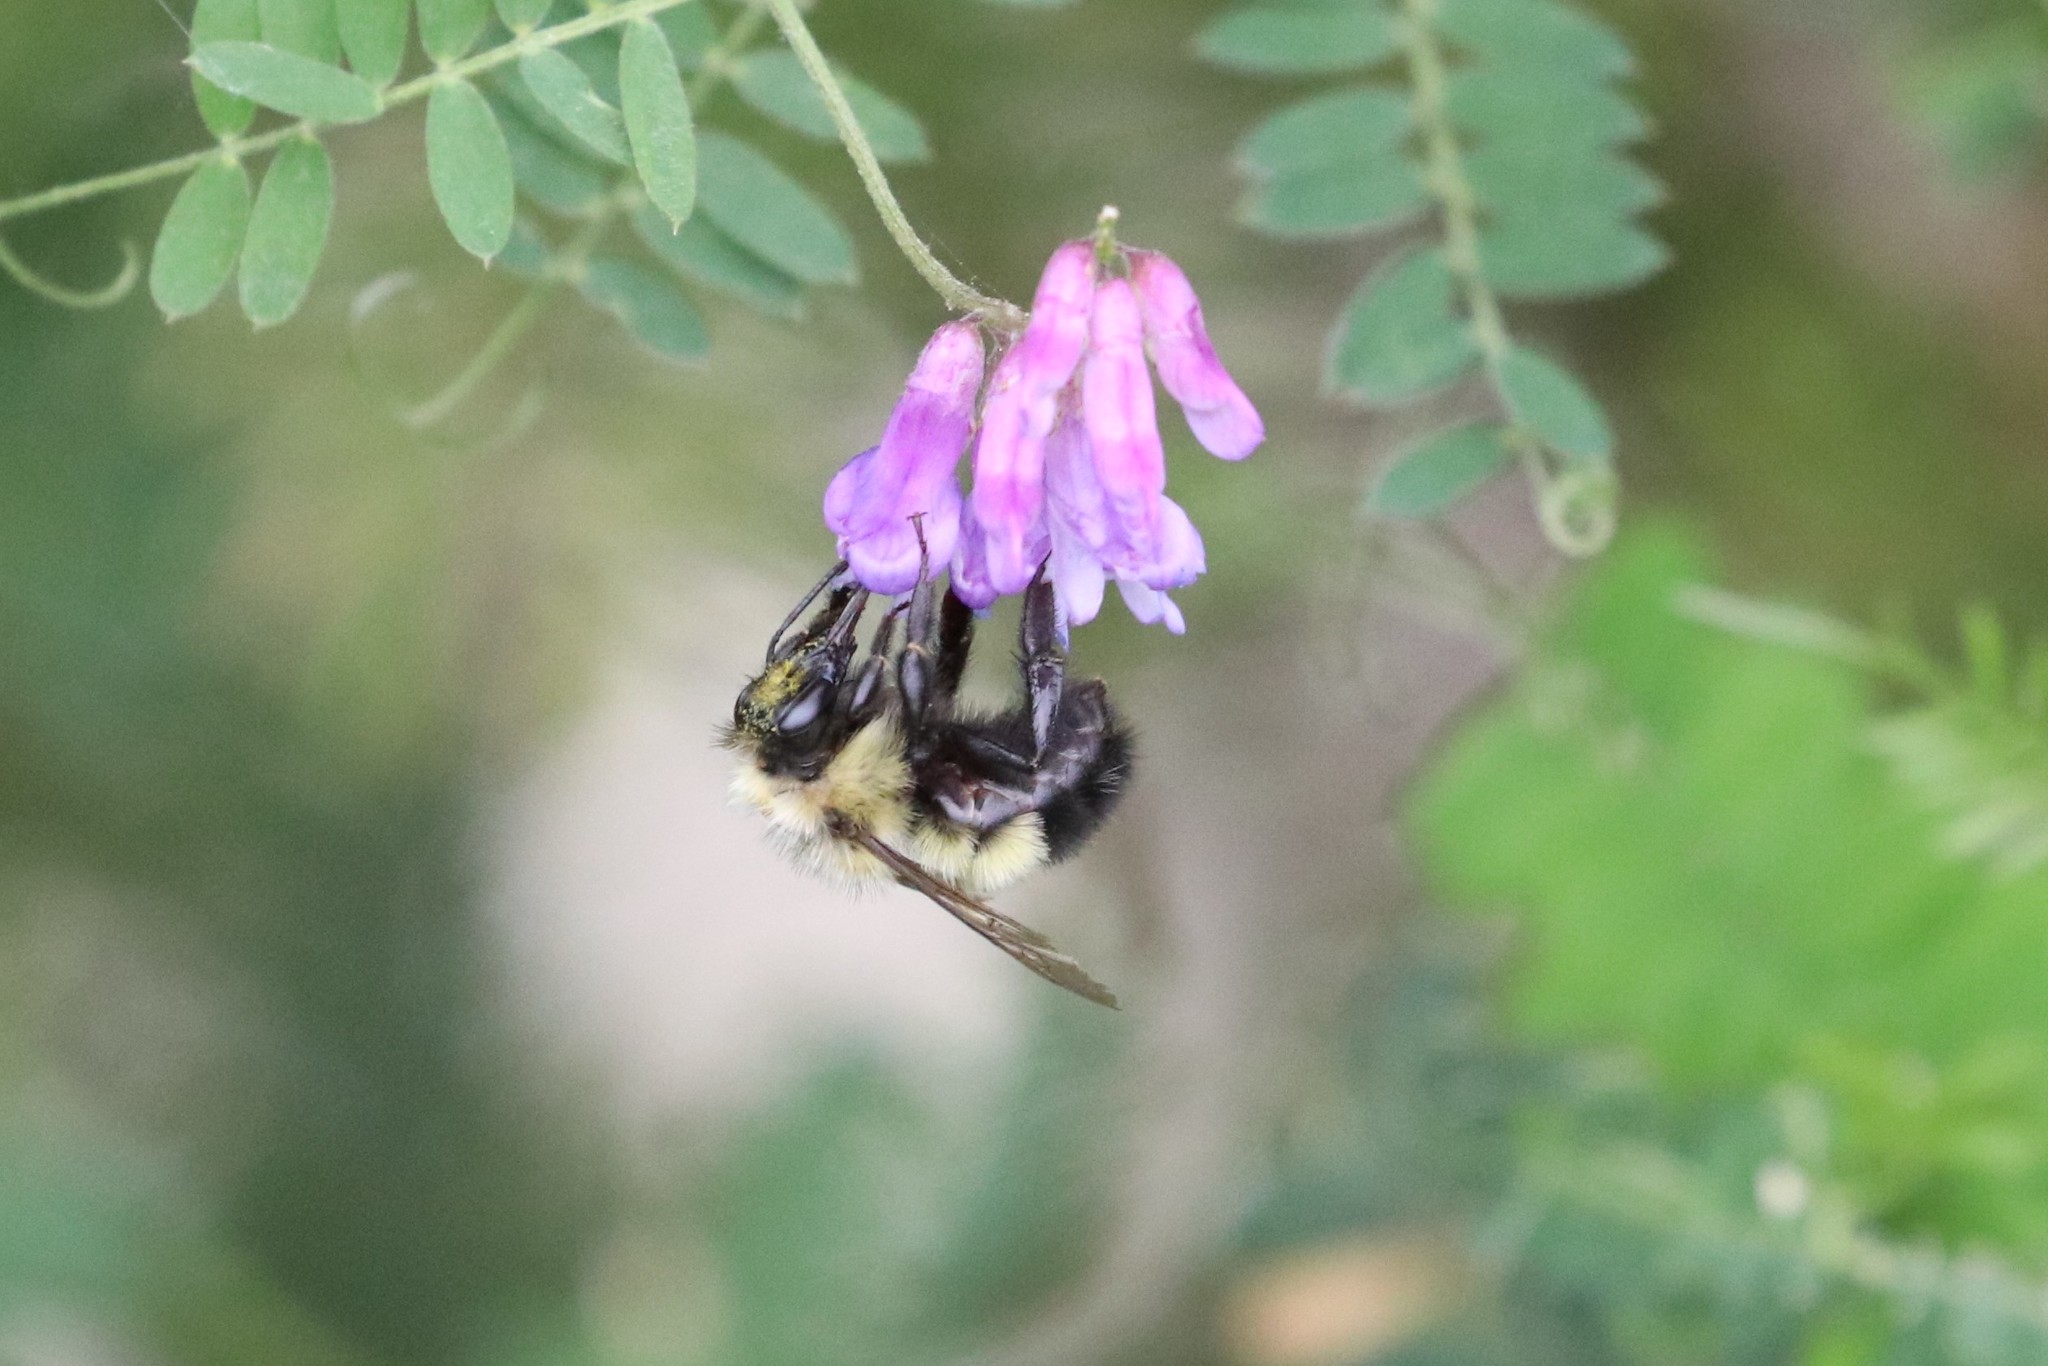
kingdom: Animalia
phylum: Arthropoda
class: Insecta
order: Hymenoptera
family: Apidae
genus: Pyrobombus
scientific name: Pyrobombus
